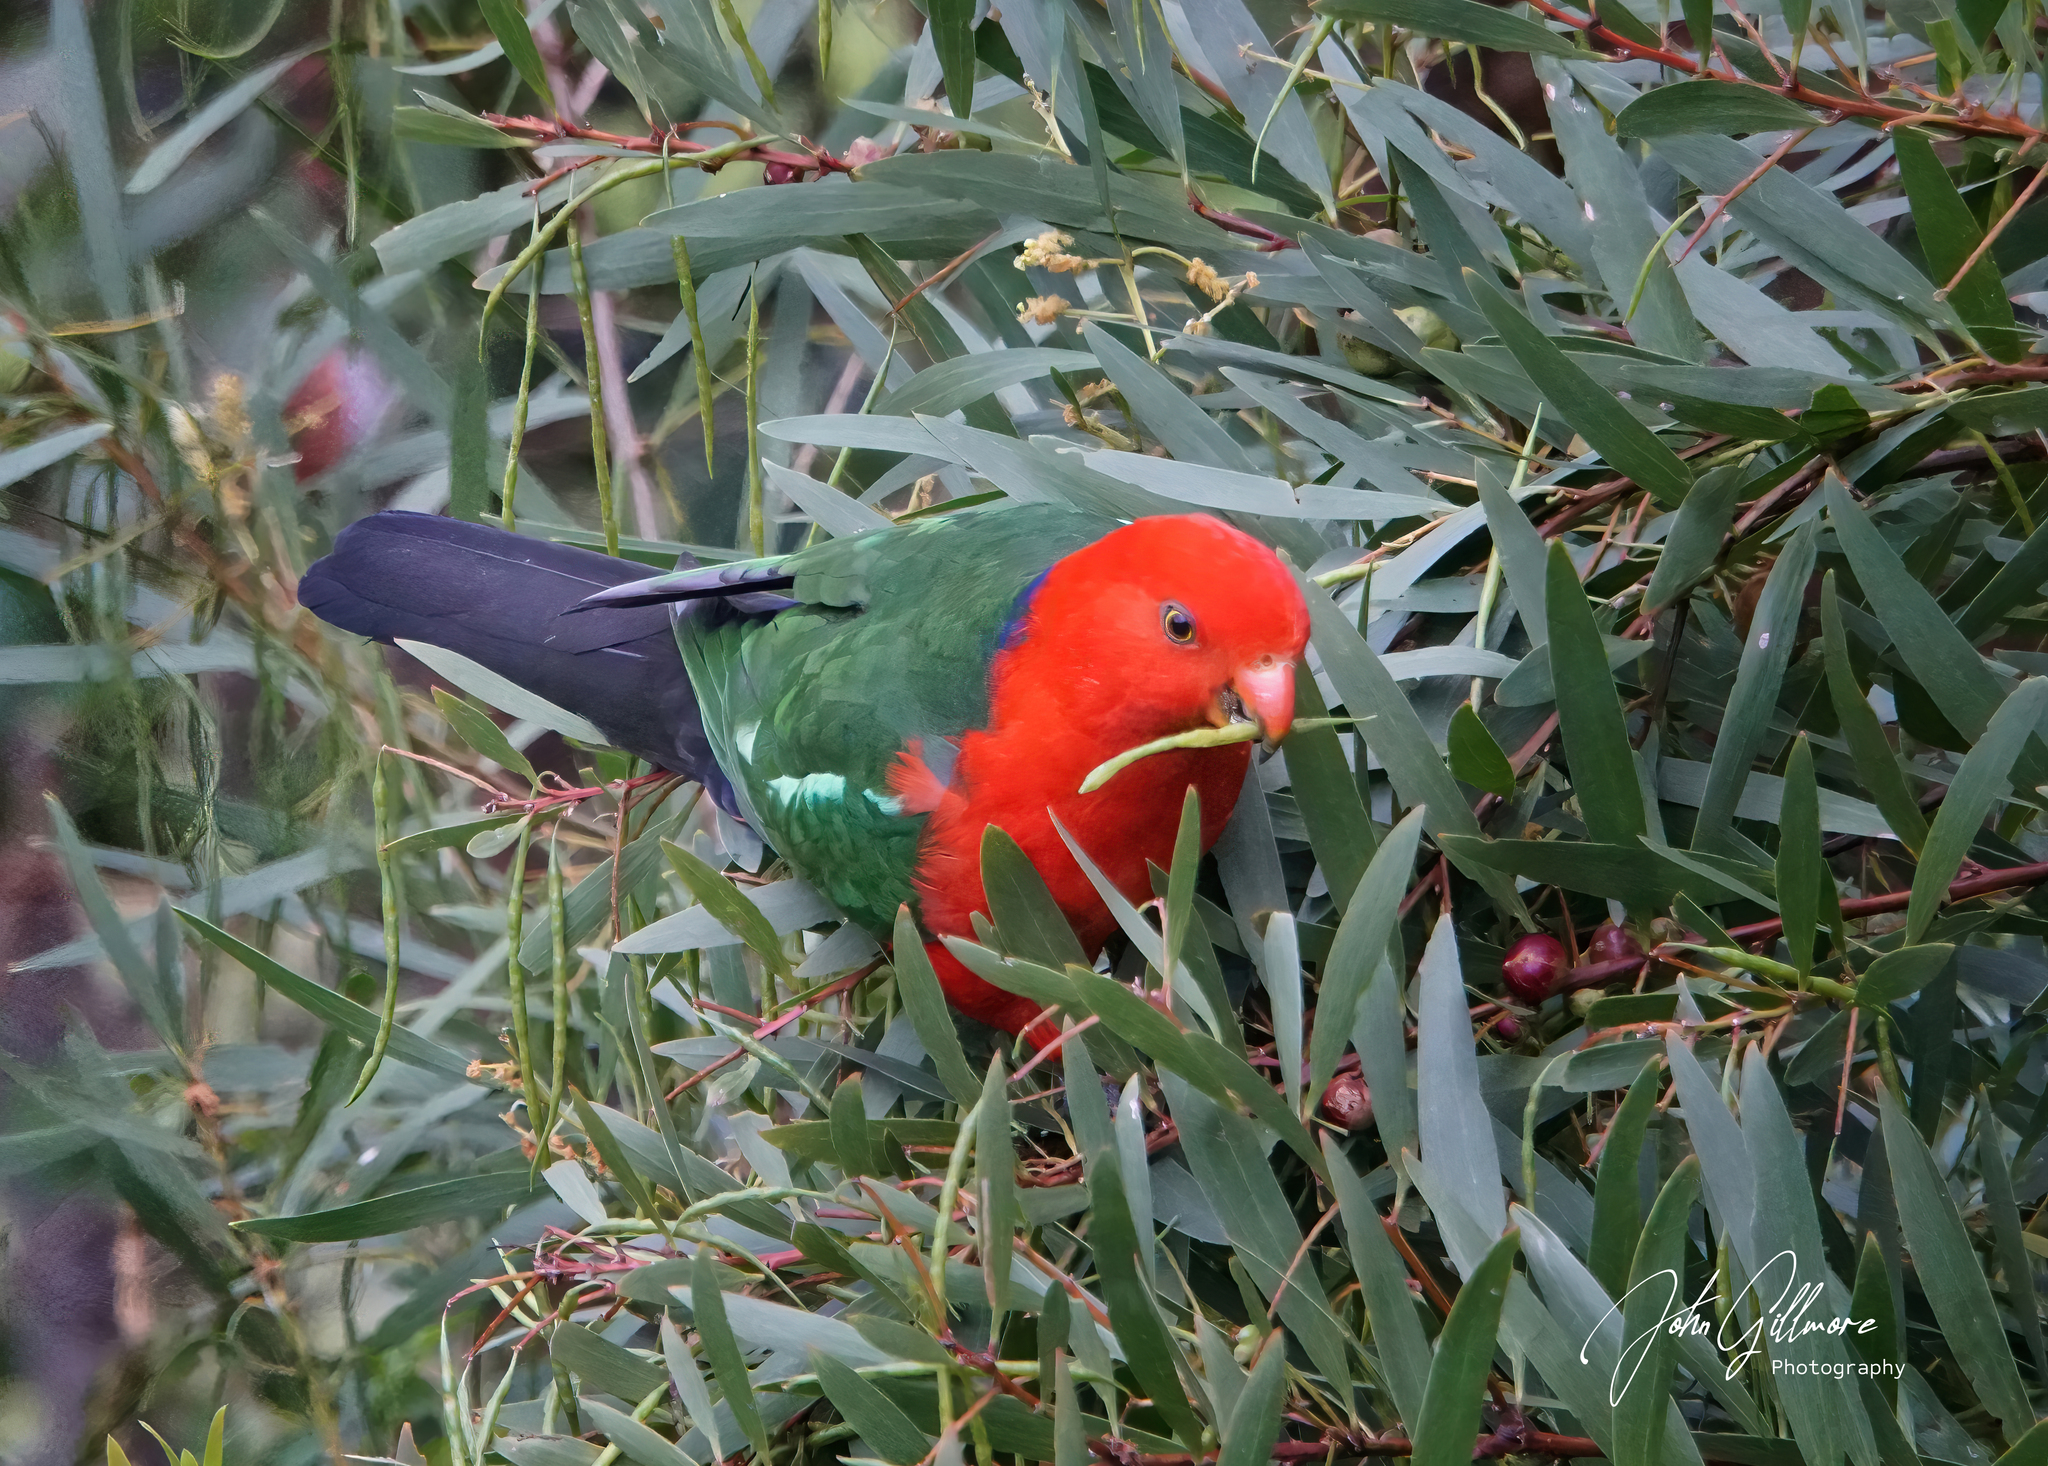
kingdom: Animalia
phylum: Chordata
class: Aves
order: Psittaciformes
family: Psittacidae
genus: Alisterus
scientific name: Alisterus scapularis
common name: Australian king parrot
